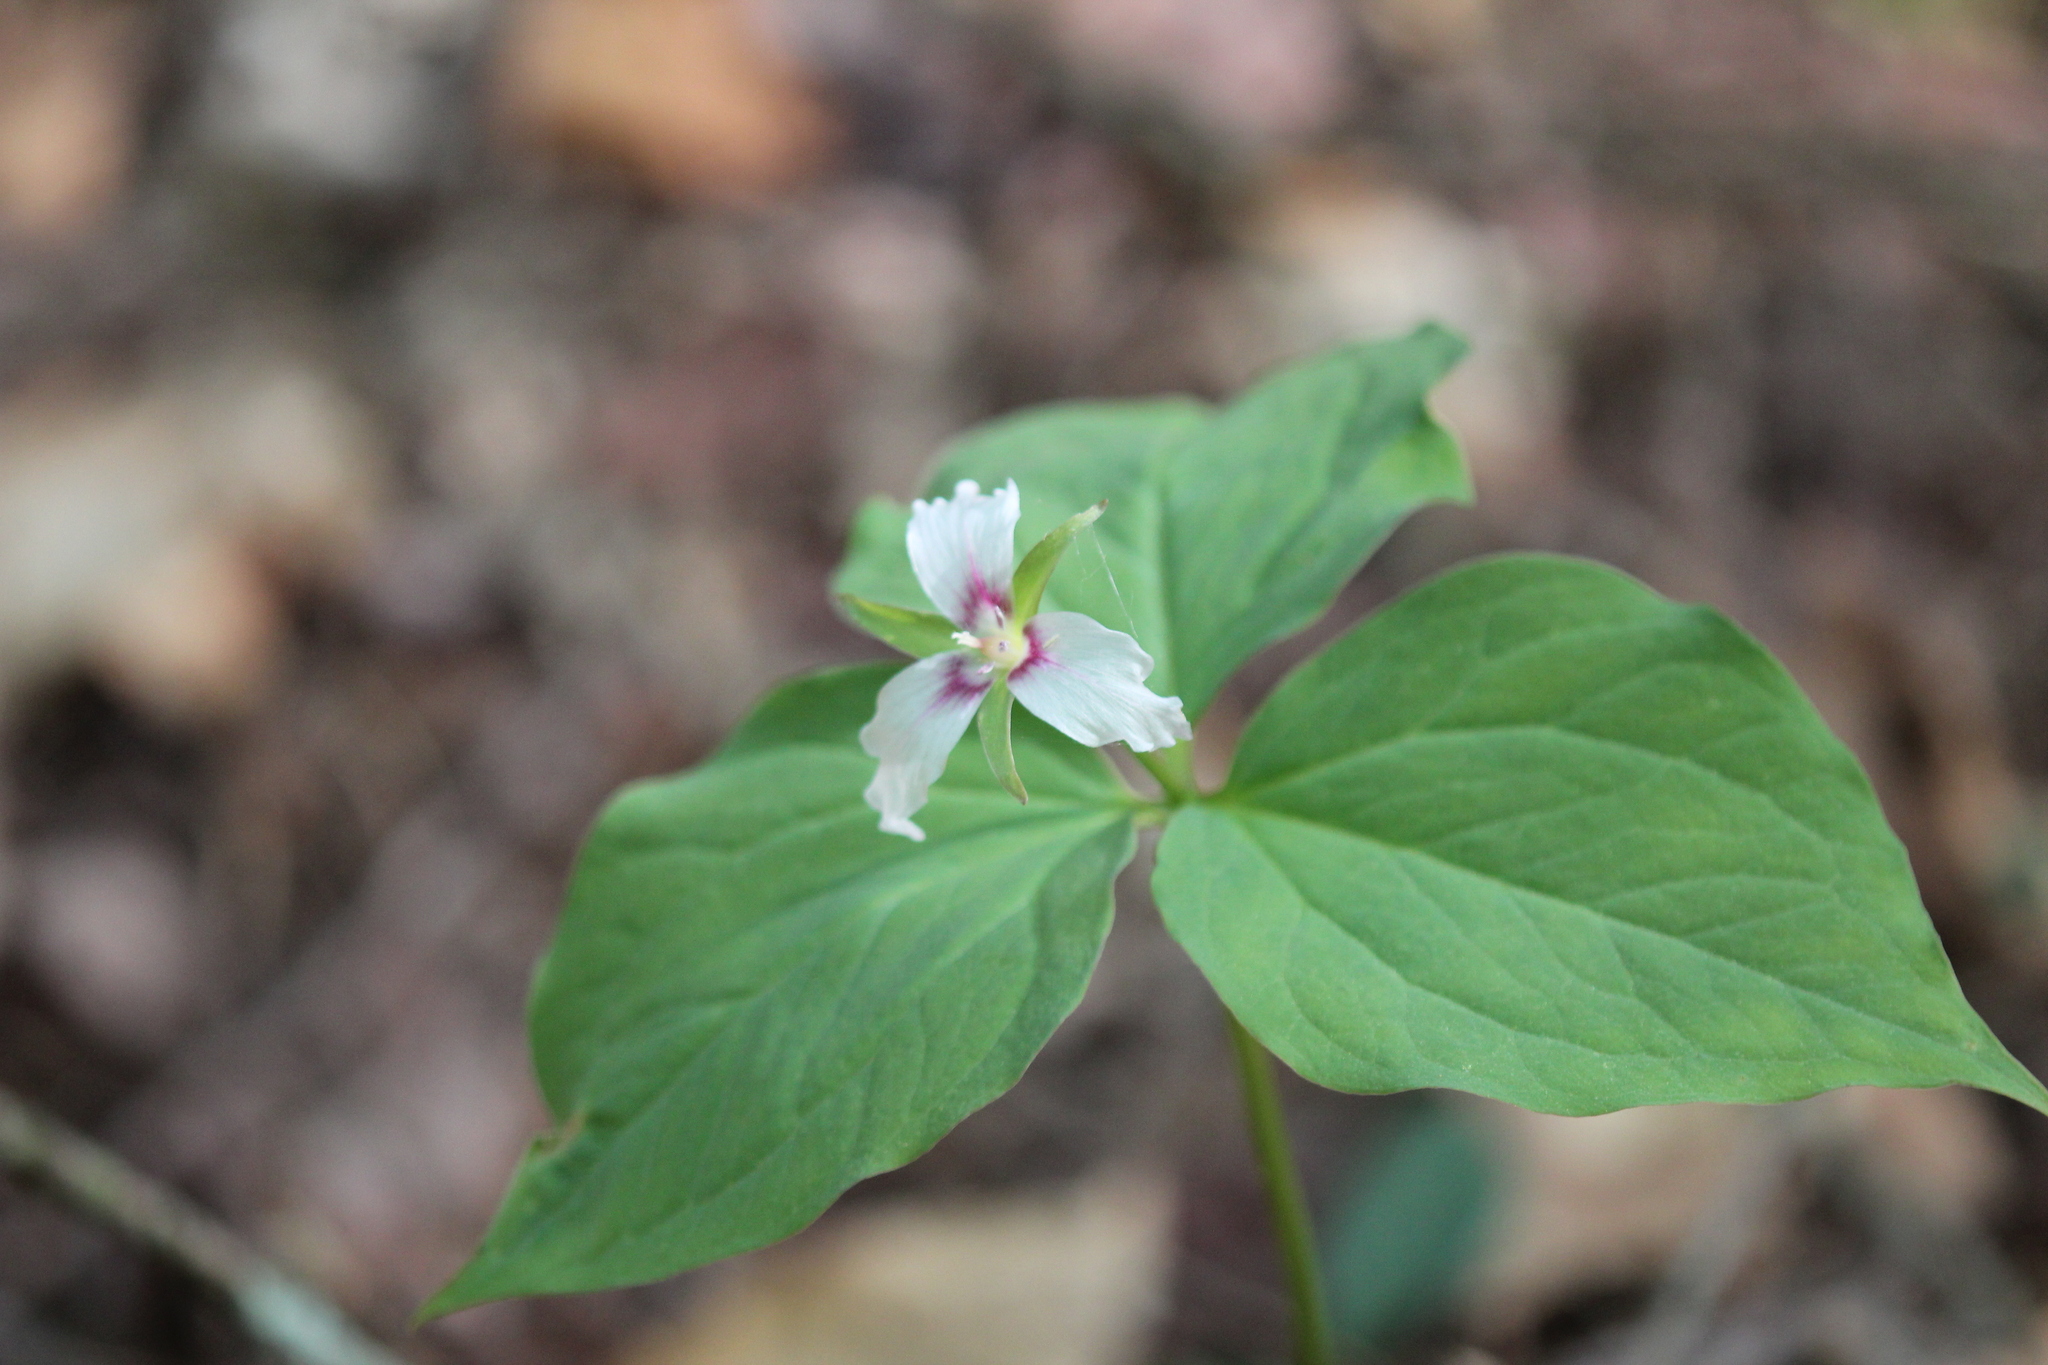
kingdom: Plantae
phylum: Tracheophyta
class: Liliopsida
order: Liliales
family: Melanthiaceae
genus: Trillium
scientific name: Trillium undulatum
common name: Paint trillium
